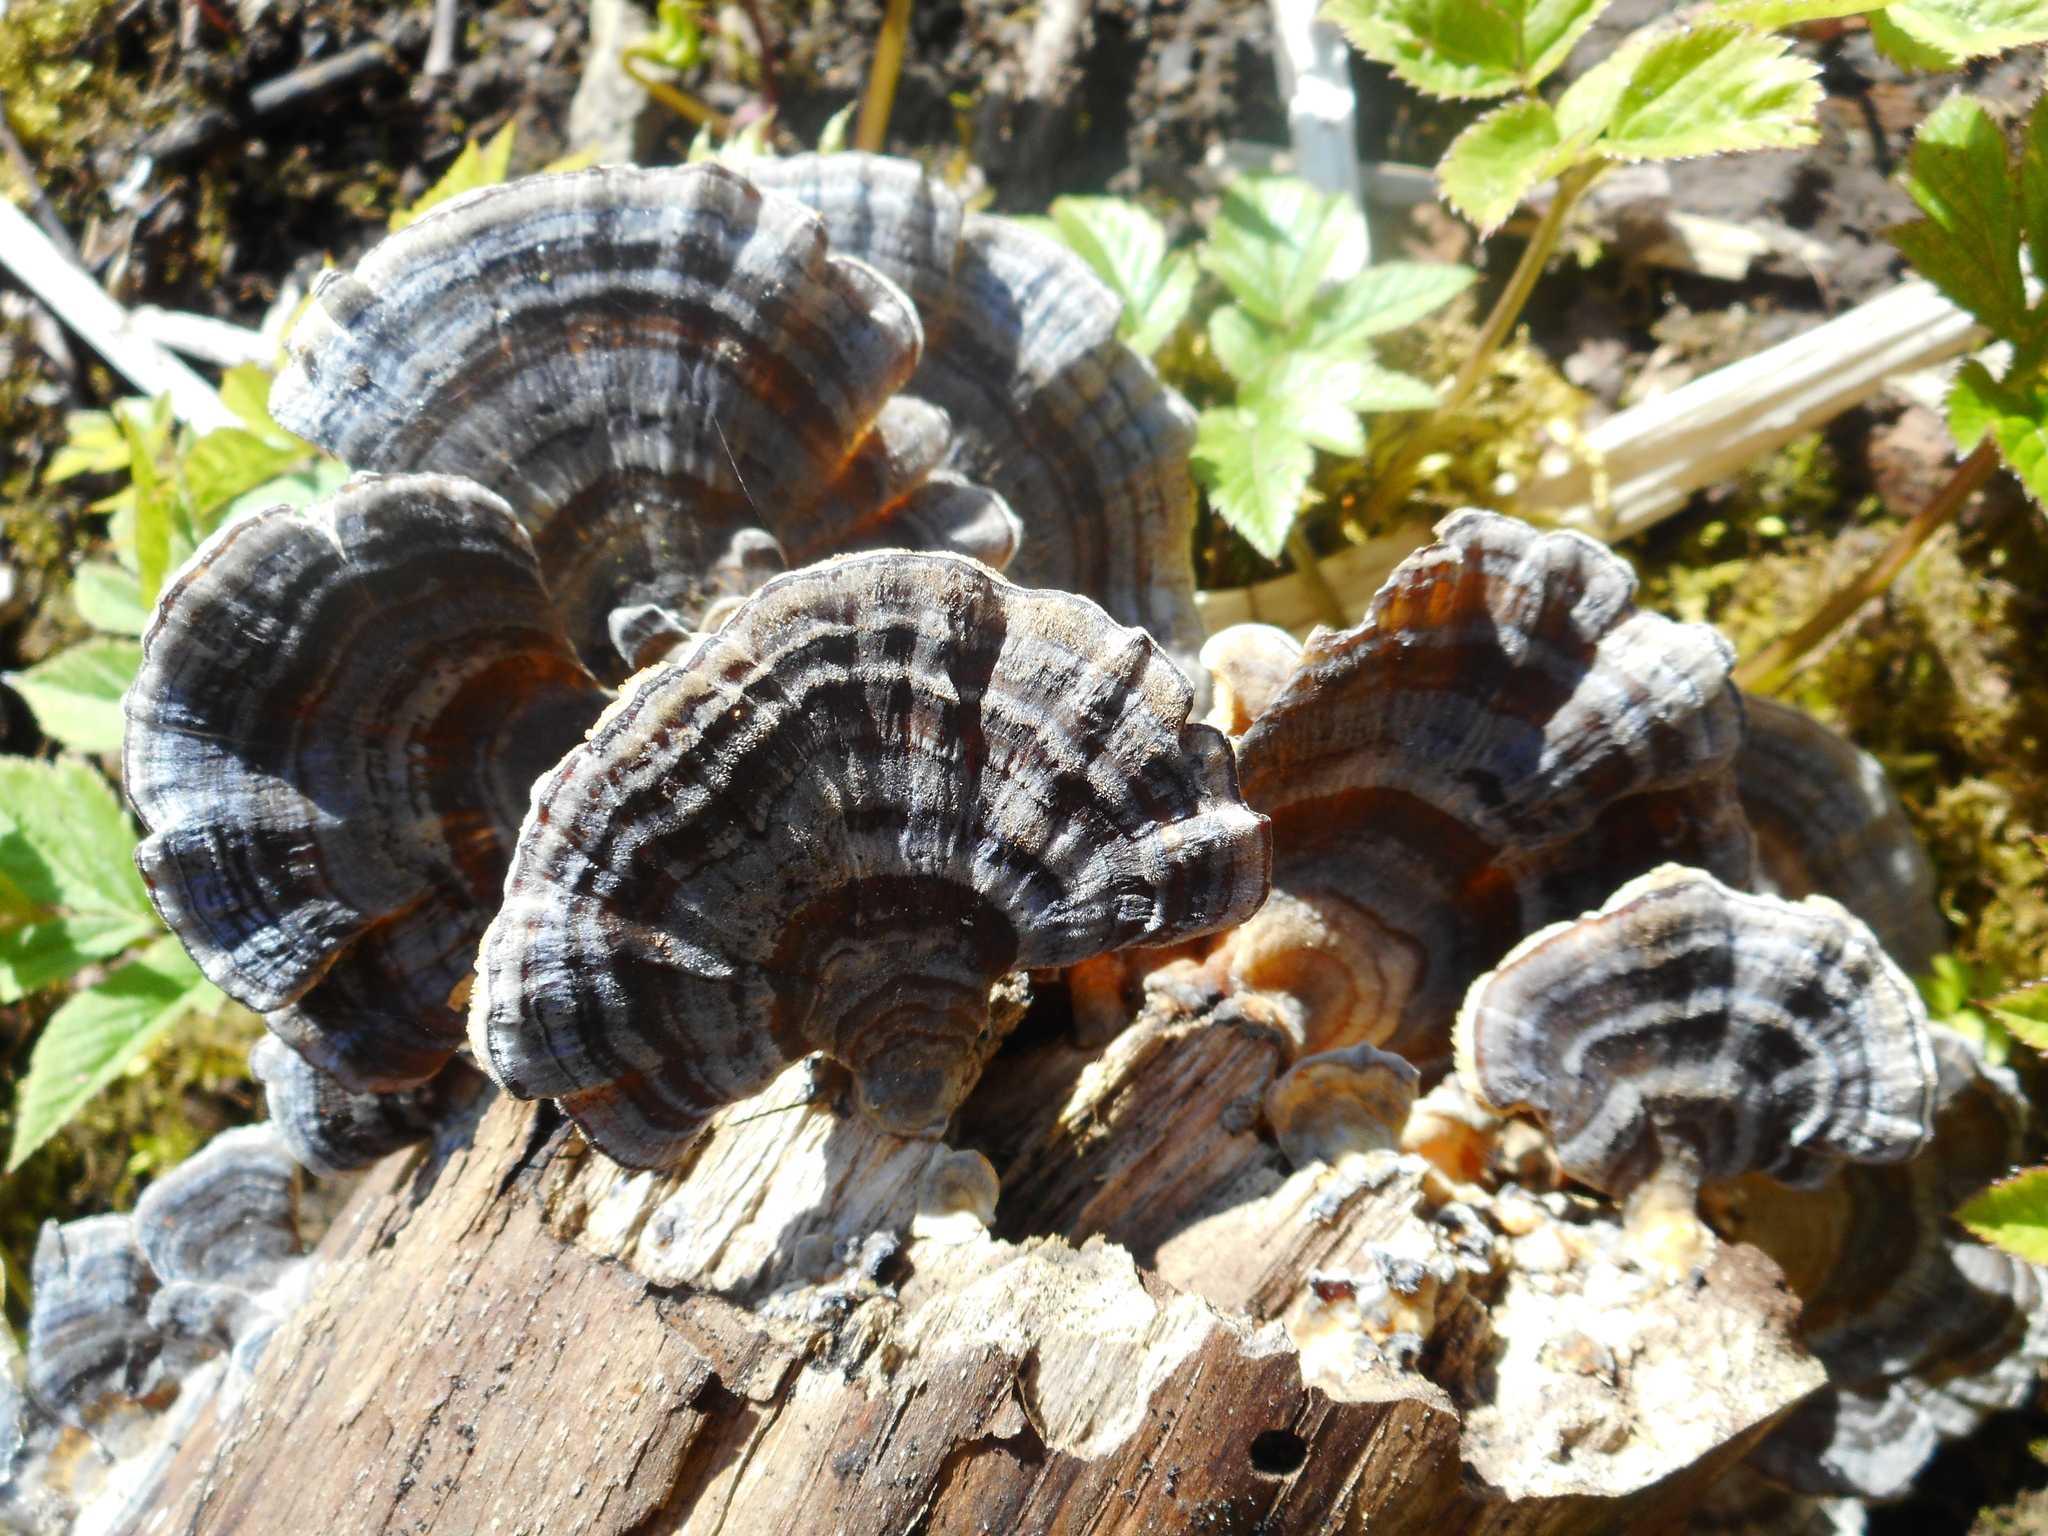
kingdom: Fungi
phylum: Basidiomycota
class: Agaricomycetes
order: Polyporales
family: Polyporaceae
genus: Trametes
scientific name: Trametes versicolor
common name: Turkeytail
